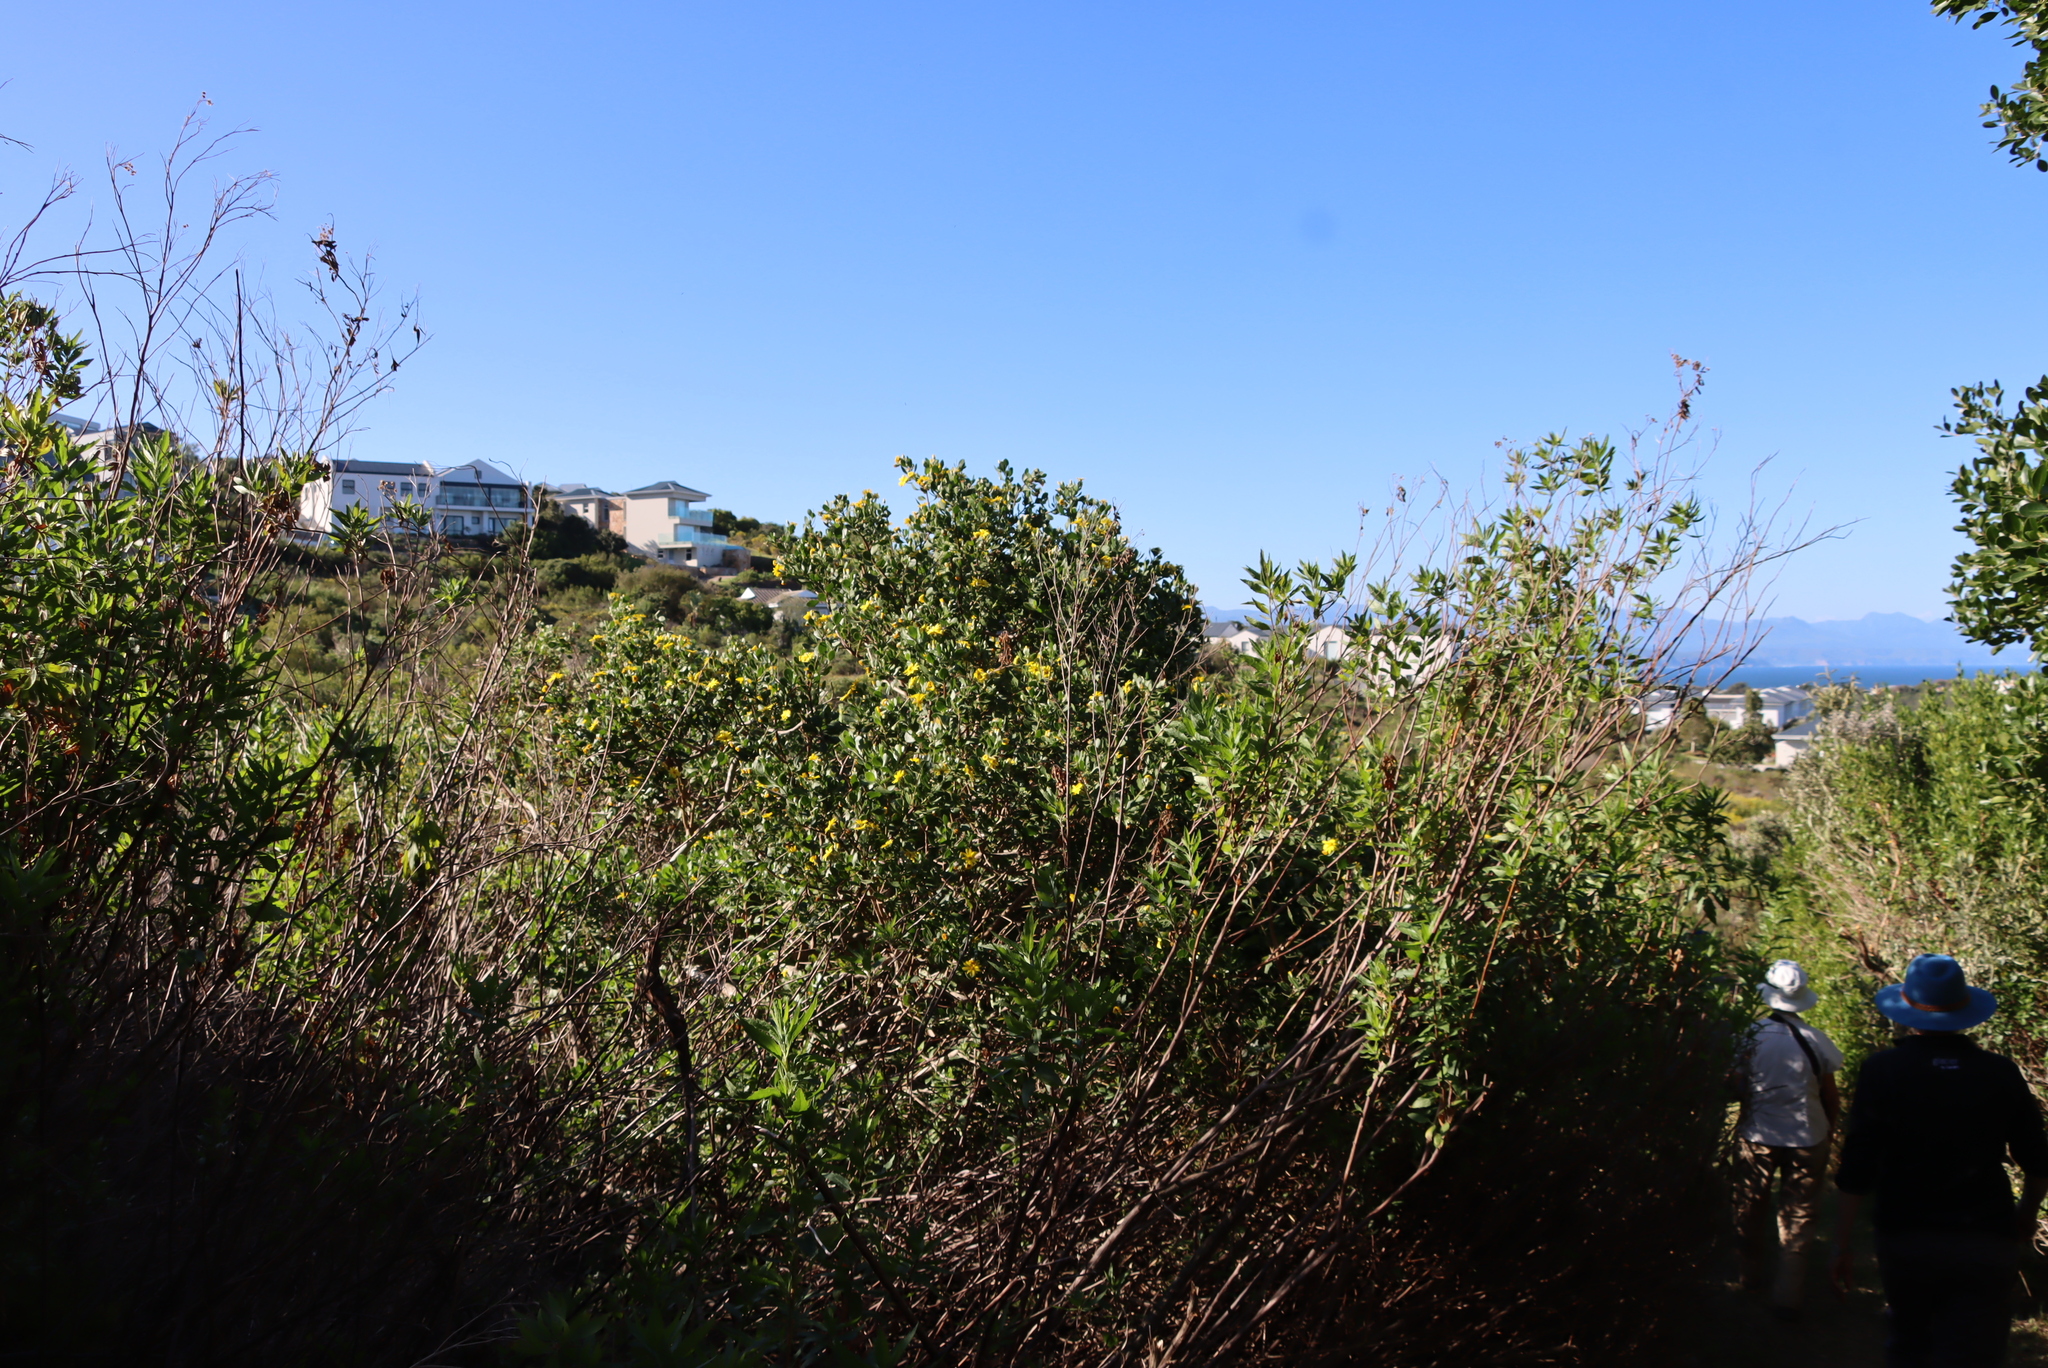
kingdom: Plantae
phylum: Tracheophyta
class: Magnoliopsida
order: Asterales
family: Asteraceae
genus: Osteospermum
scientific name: Osteospermum moniliferum
